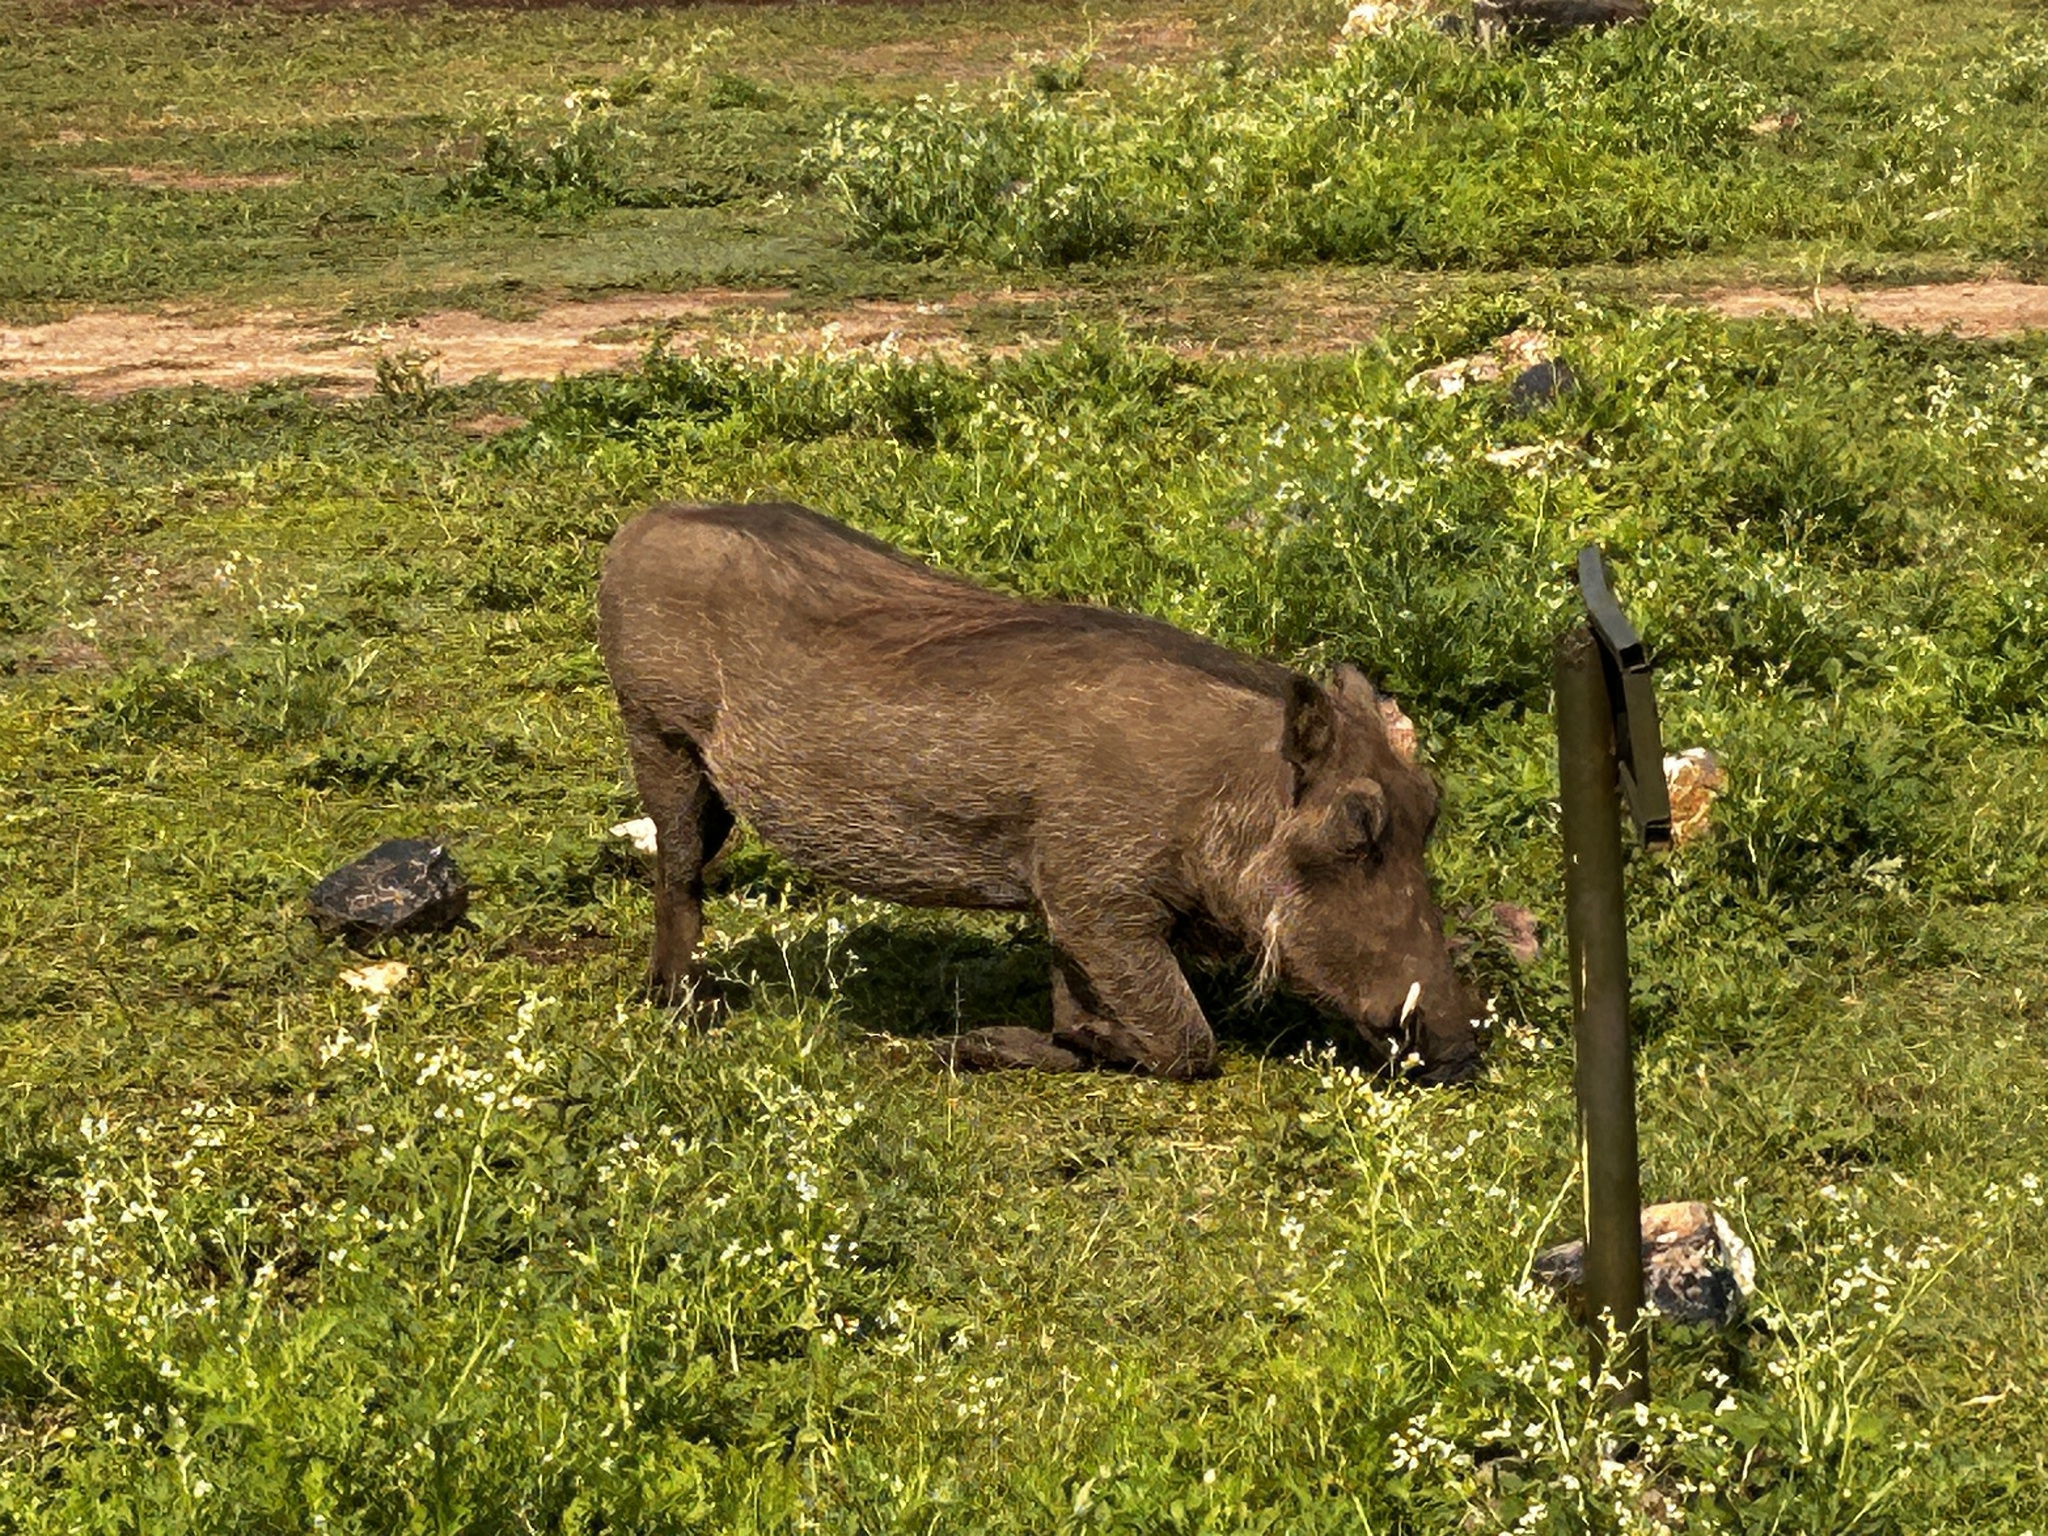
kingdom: Animalia
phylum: Chordata
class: Mammalia
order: Artiodactyla
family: Suidae
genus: Phacochoerus
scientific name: Phacochoerus africanus
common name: Common warthog
